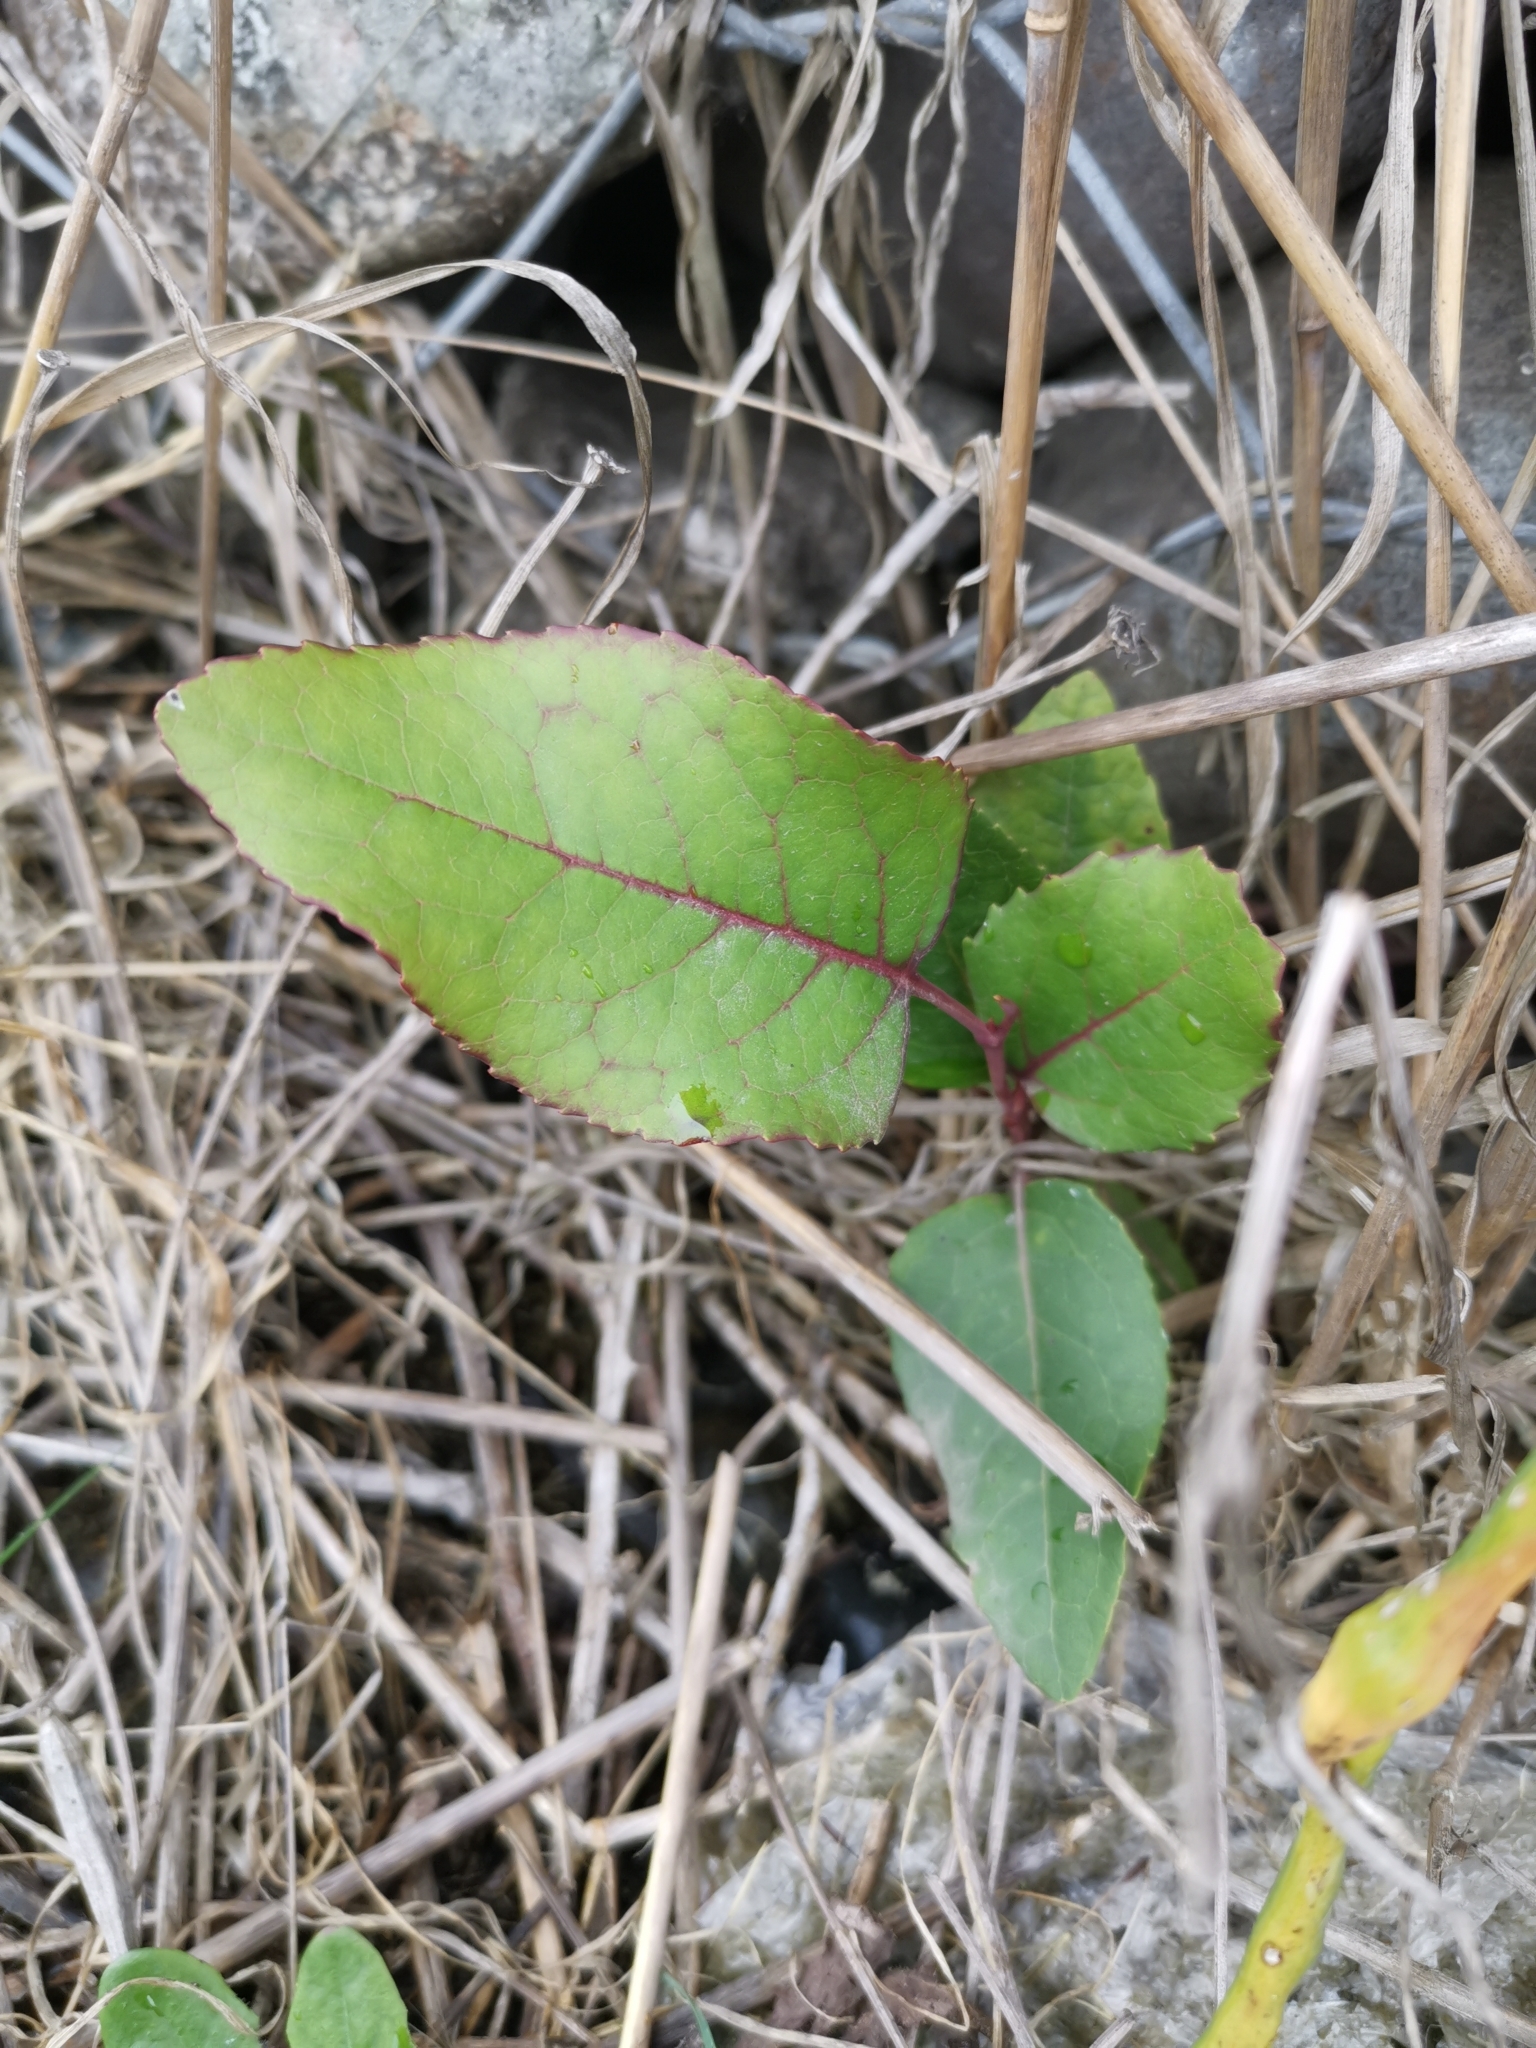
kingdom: Plantae
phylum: Tracheophyta
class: Magnoliopsida
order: Proteales
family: Proteaceae
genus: Lomatia
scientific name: Lomatia hirsuta
